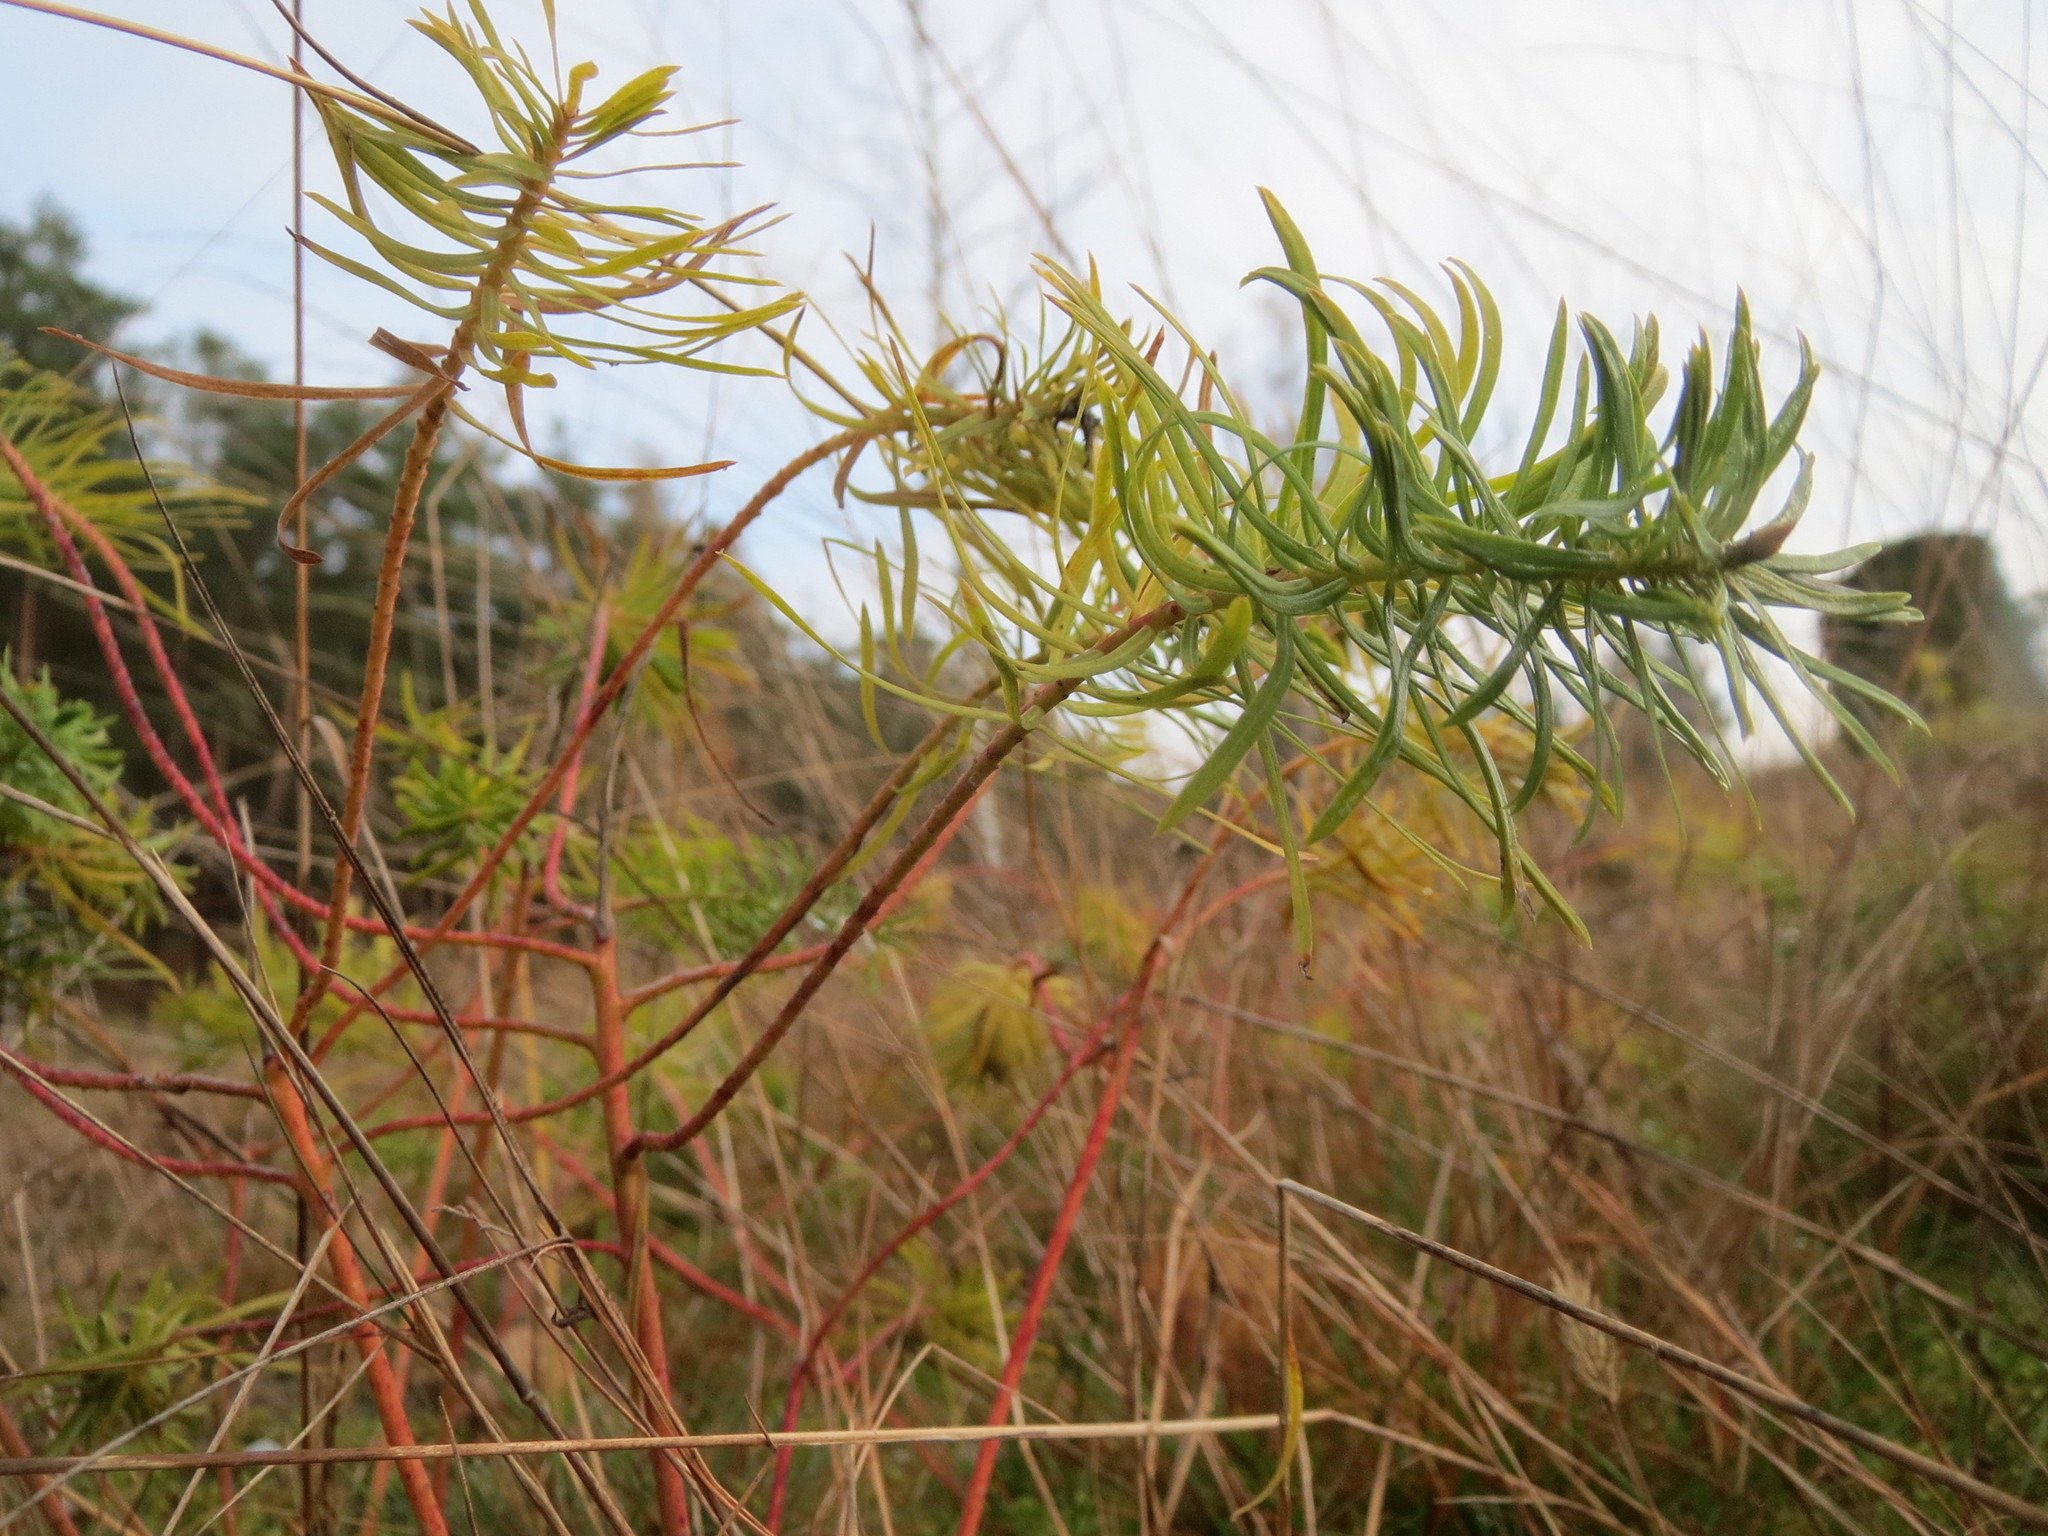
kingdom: Plantae
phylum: Tracheophyta
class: Magnoliopsida
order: Malpighiales
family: Euphorbiaceae
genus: Euphorbia
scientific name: Euphorbia cyparissias
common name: Cypress spurge
